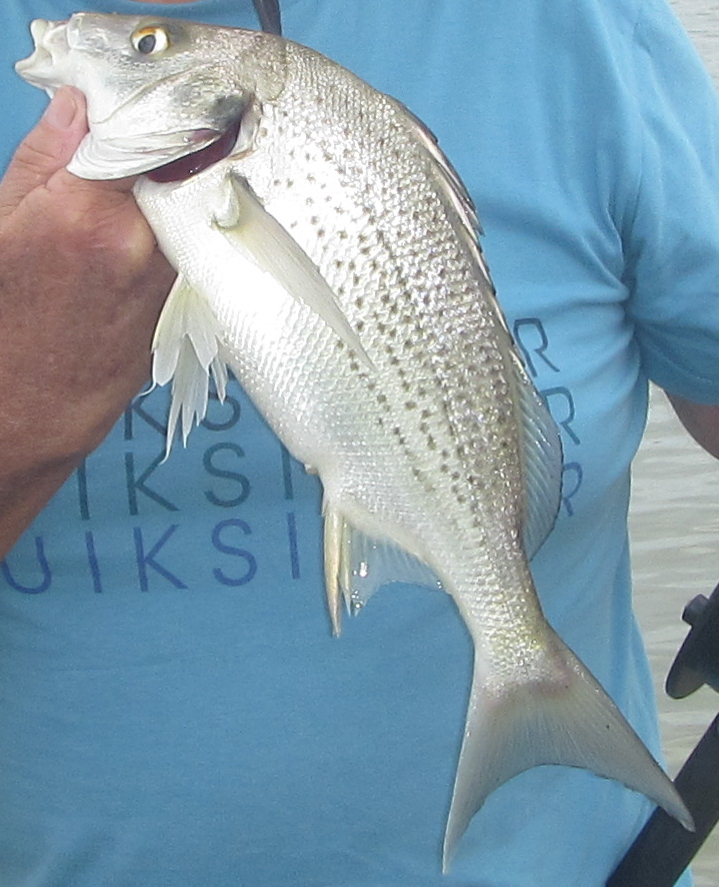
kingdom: Animalia
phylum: Chordata
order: Perciformes
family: Haemulidae
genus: Pomadasys
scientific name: Pomadasys commersonnii
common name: Smallspotted grunter
